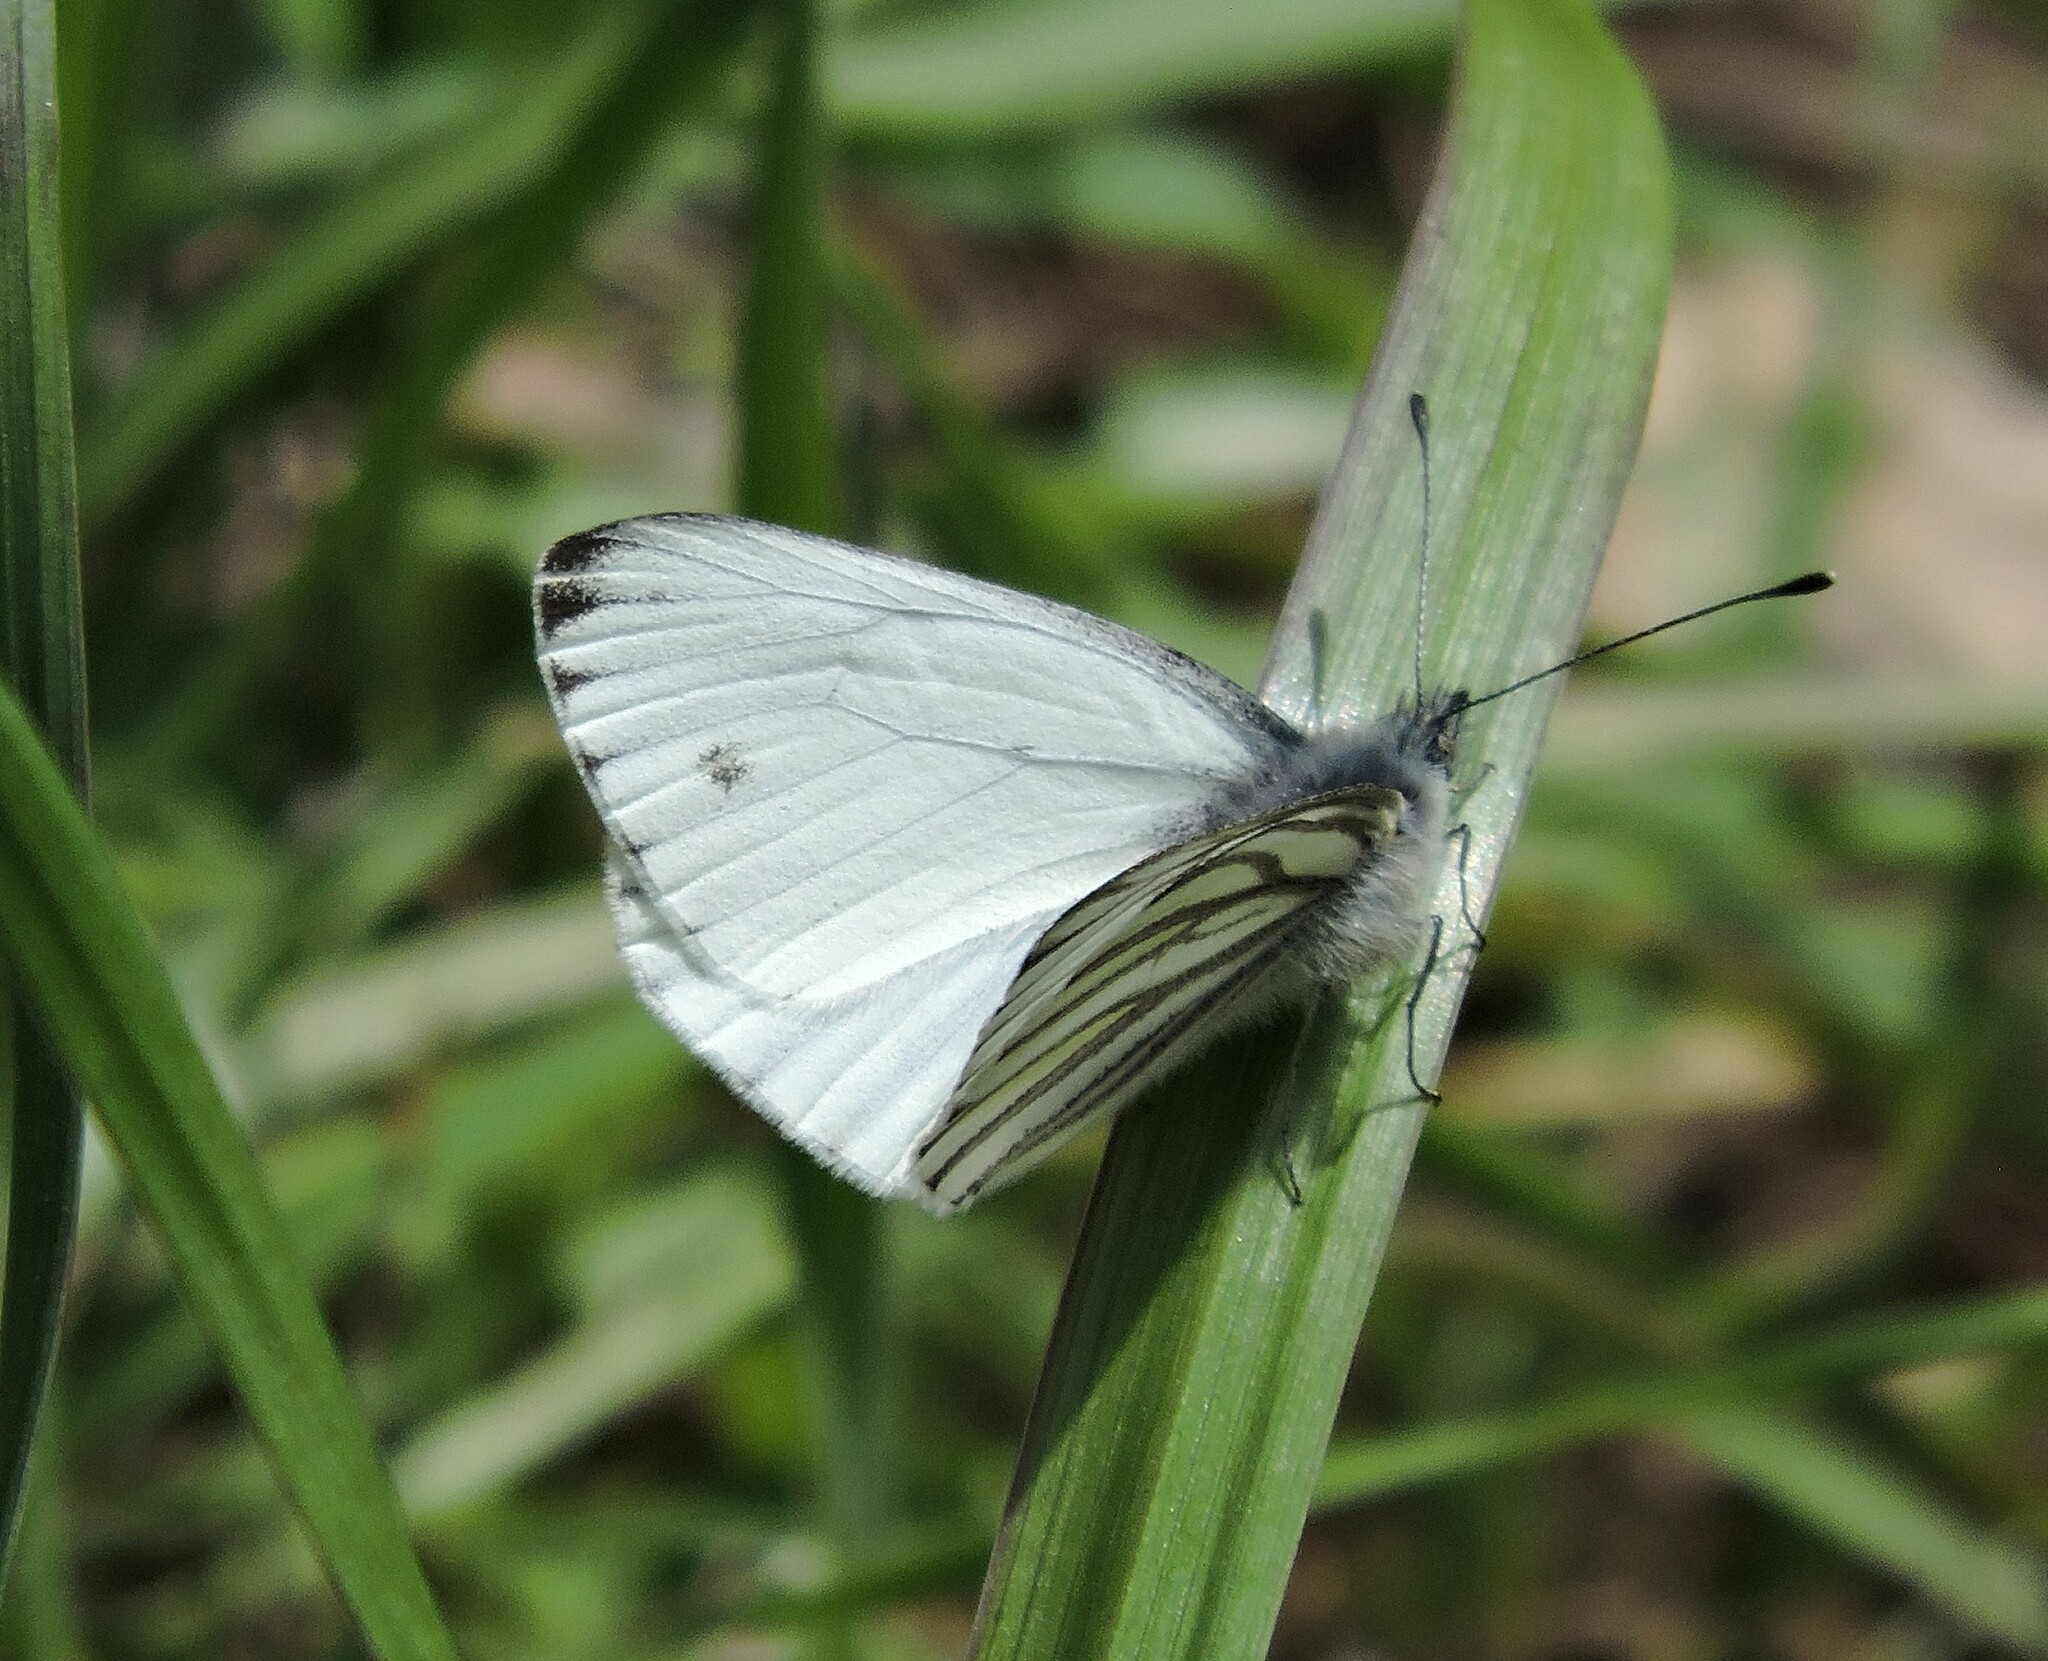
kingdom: Animalia
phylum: Arthropoda
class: Insecta
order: Lepidoptera
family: Pieridae
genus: Pieris
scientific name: Pieris marginalis
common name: Margined white
